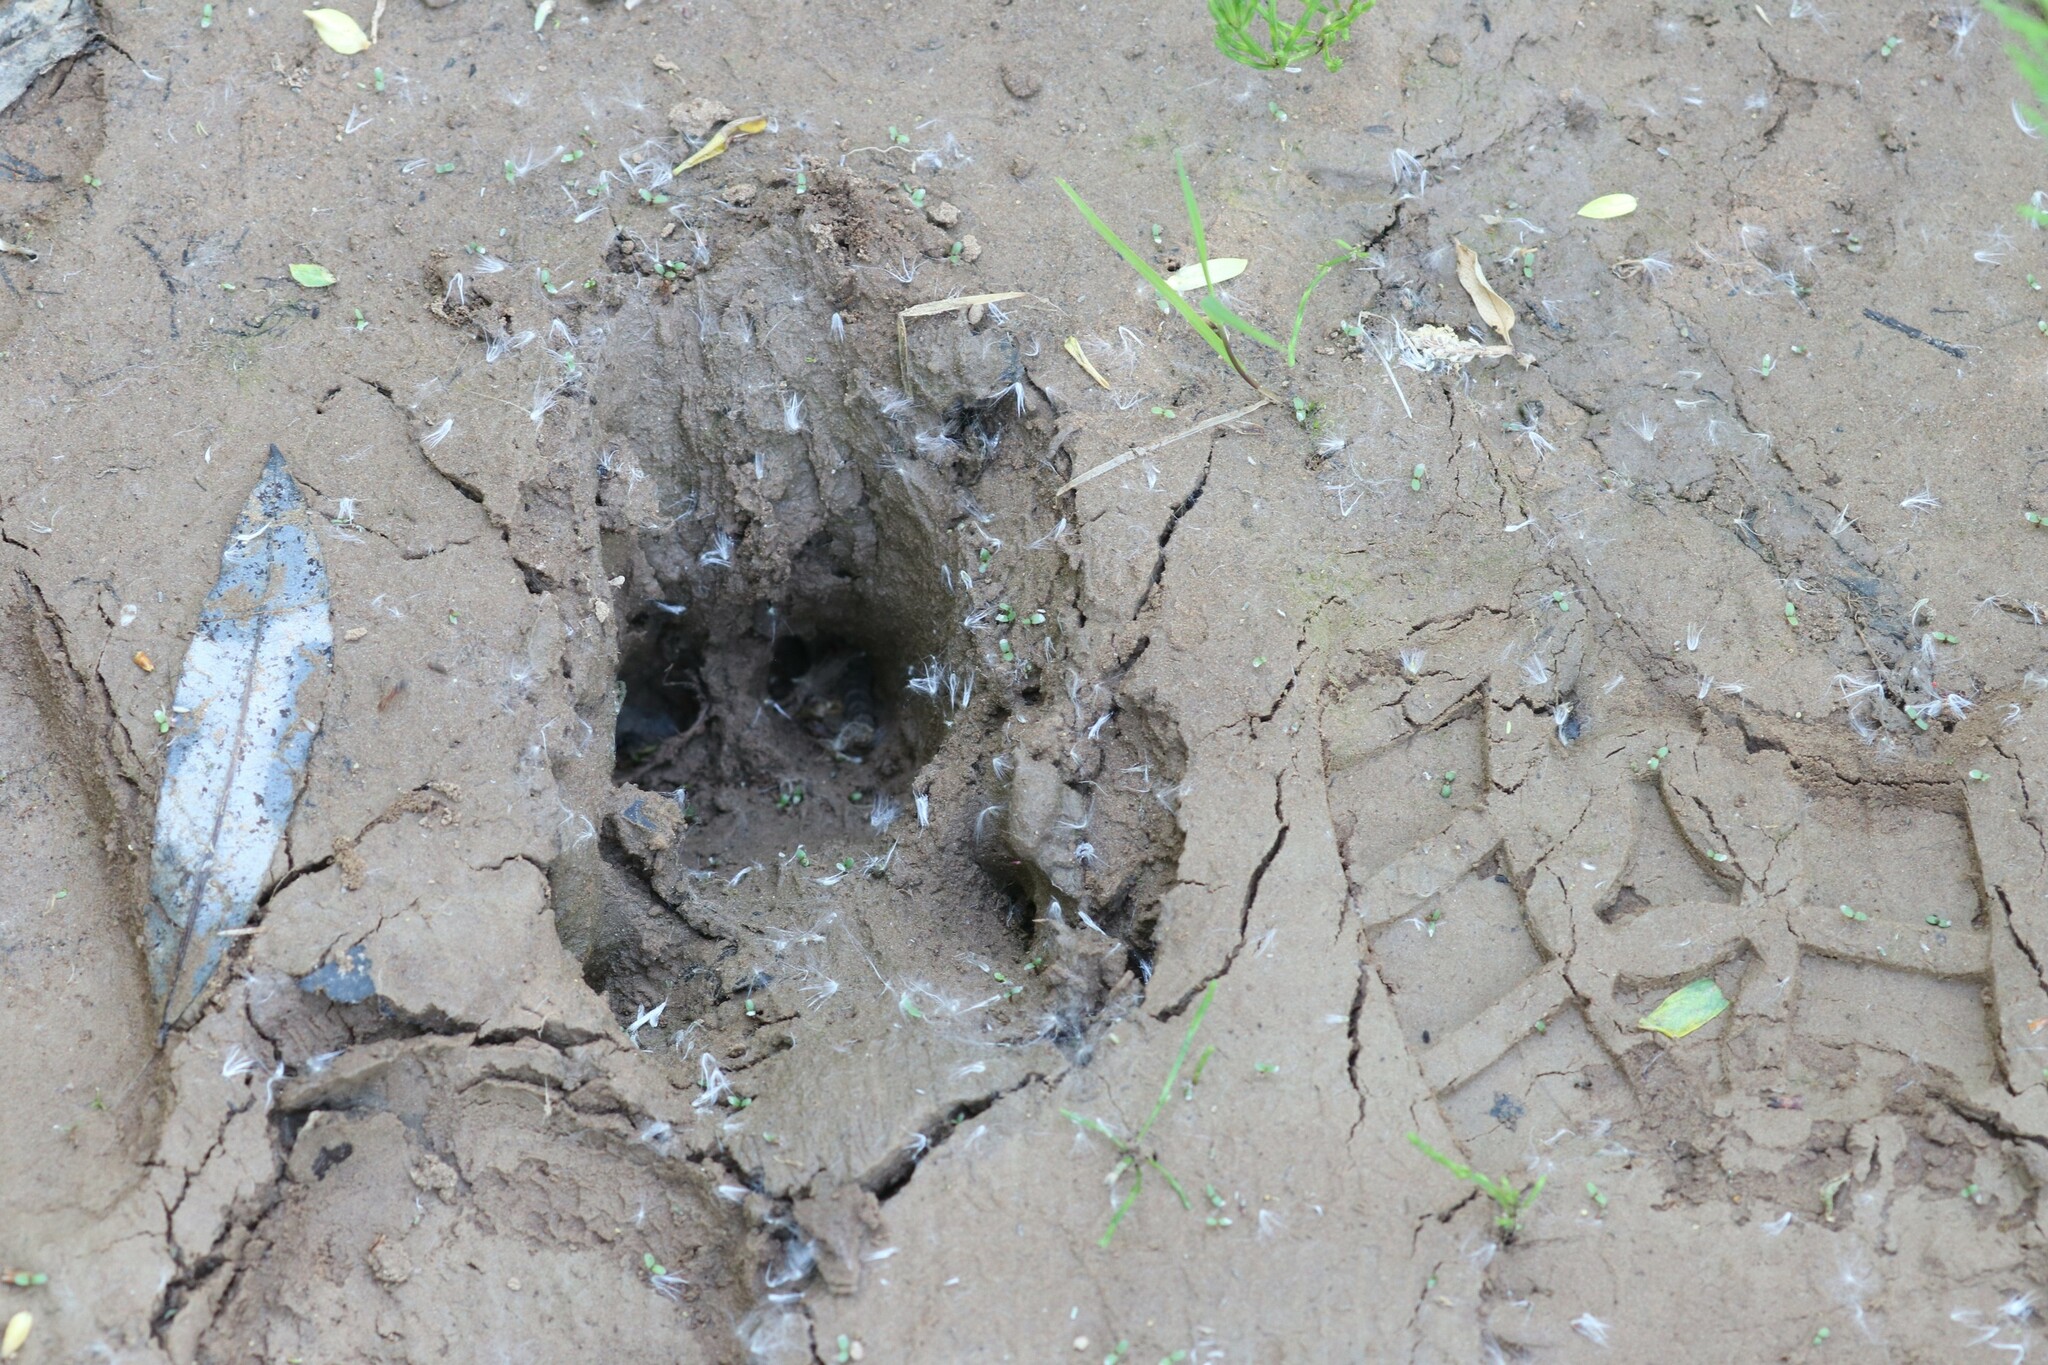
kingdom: Animalia
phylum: Chordata
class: Mammalia
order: Artiodactyla
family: Suidae
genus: Sus
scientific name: Sus scrofa
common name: Wild boar
